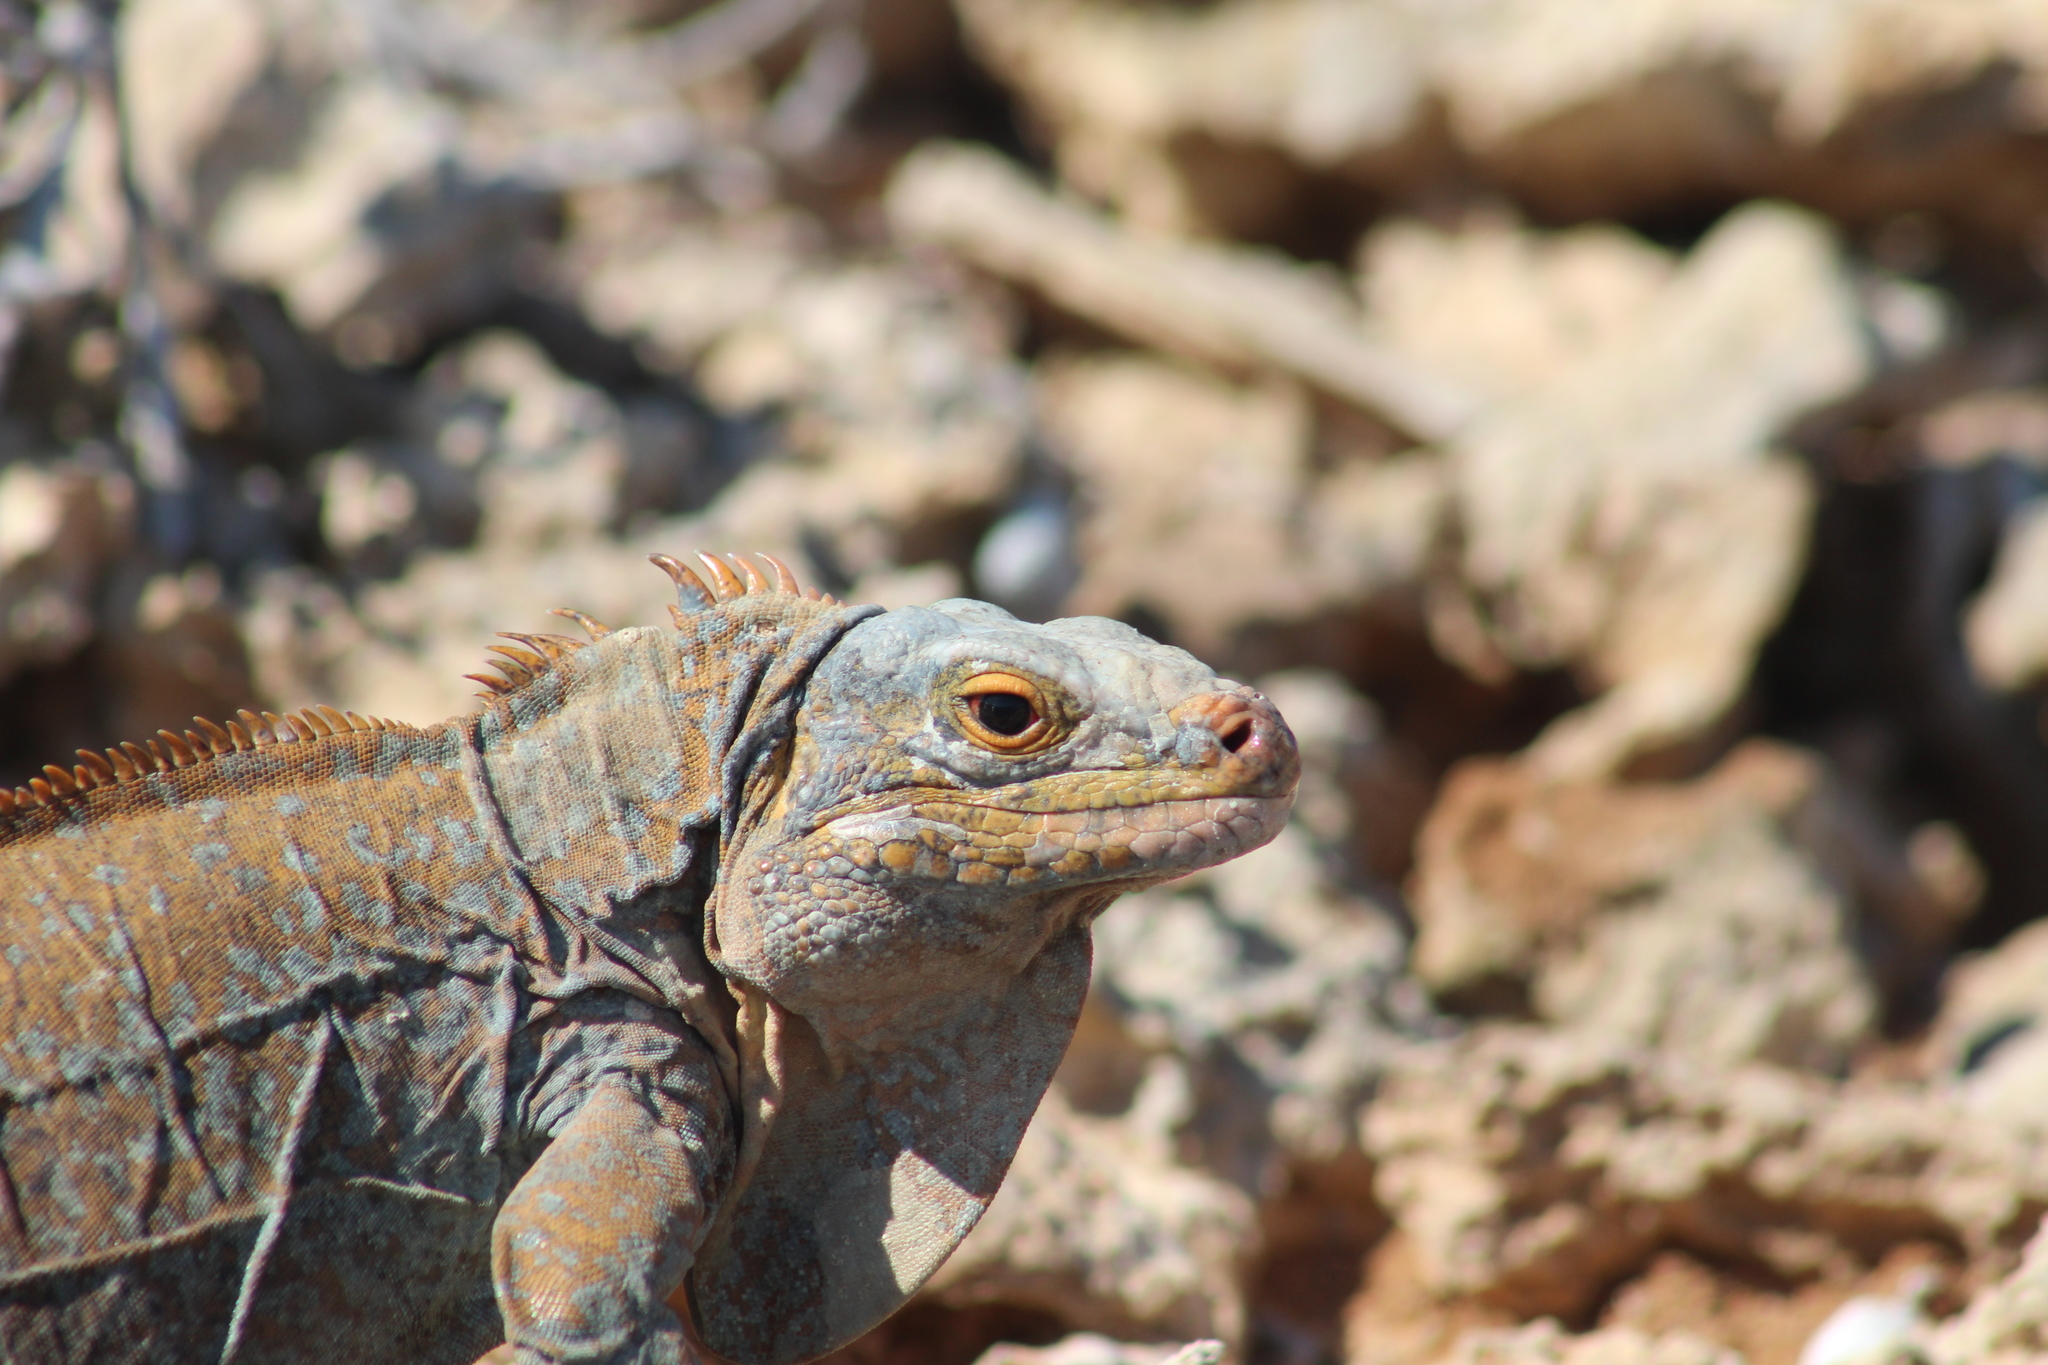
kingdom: Animalia
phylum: Chordata
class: Squamata
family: Iguanidae
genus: Cyclura
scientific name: Cyclura rileyi
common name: Acklin's ground iguana
